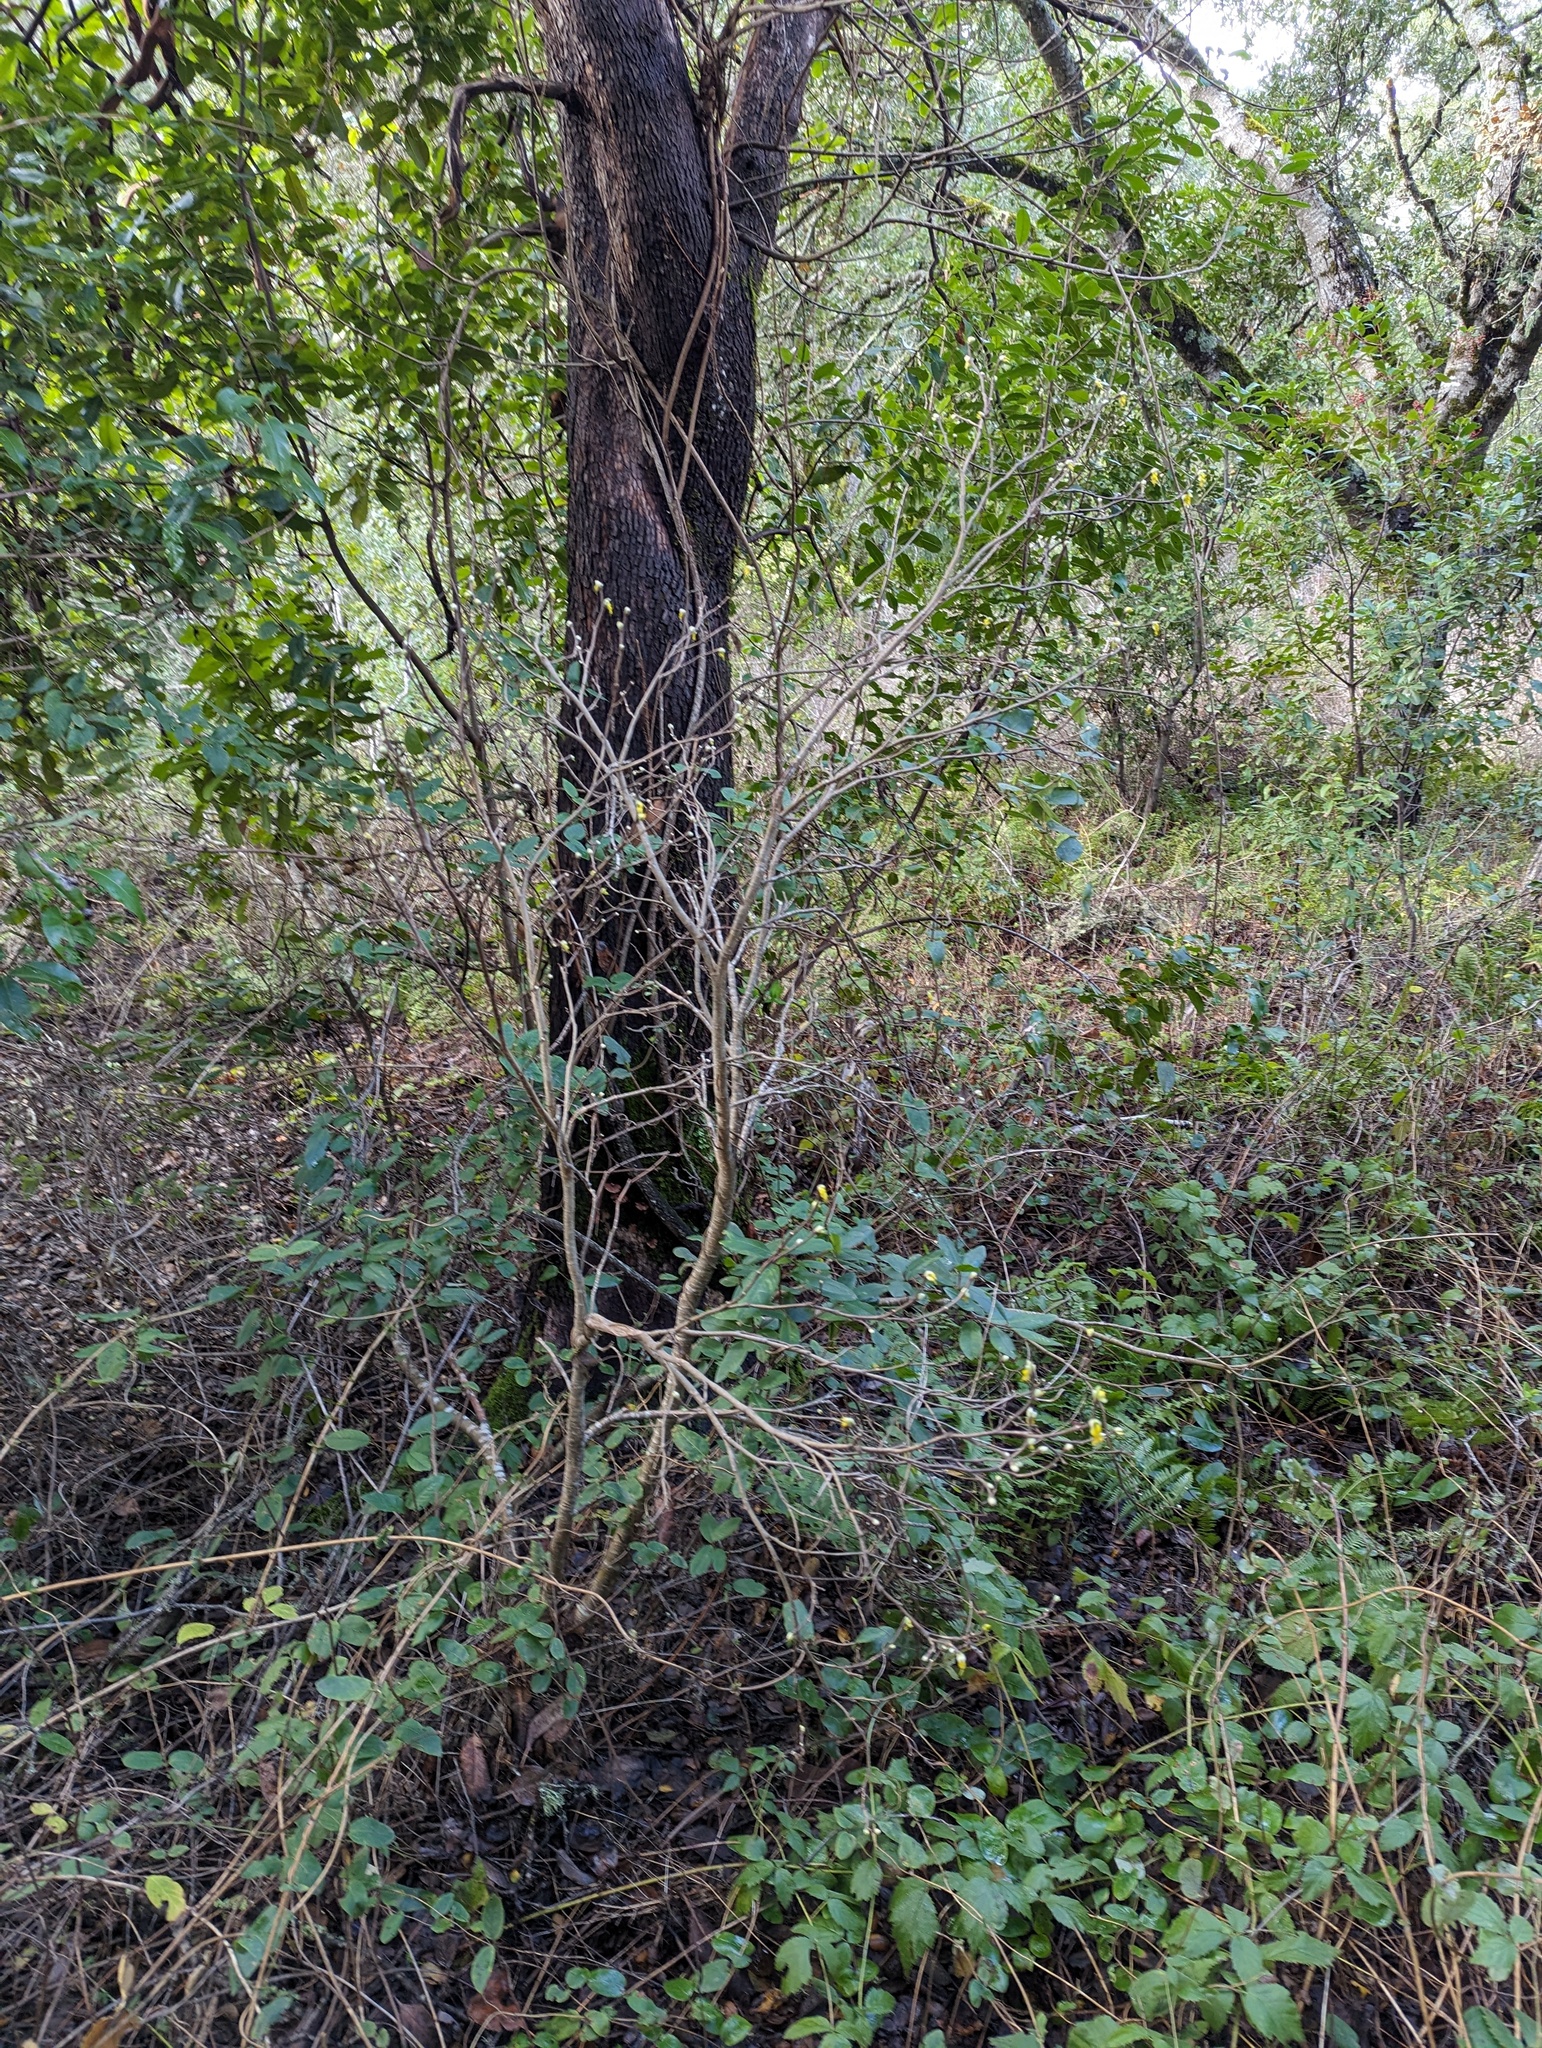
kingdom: Plantae
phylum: Tracheophyta
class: Magnoliopsida
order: Malvales
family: Thymelaeaceae
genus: Dirca
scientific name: Dirca occidentalis
